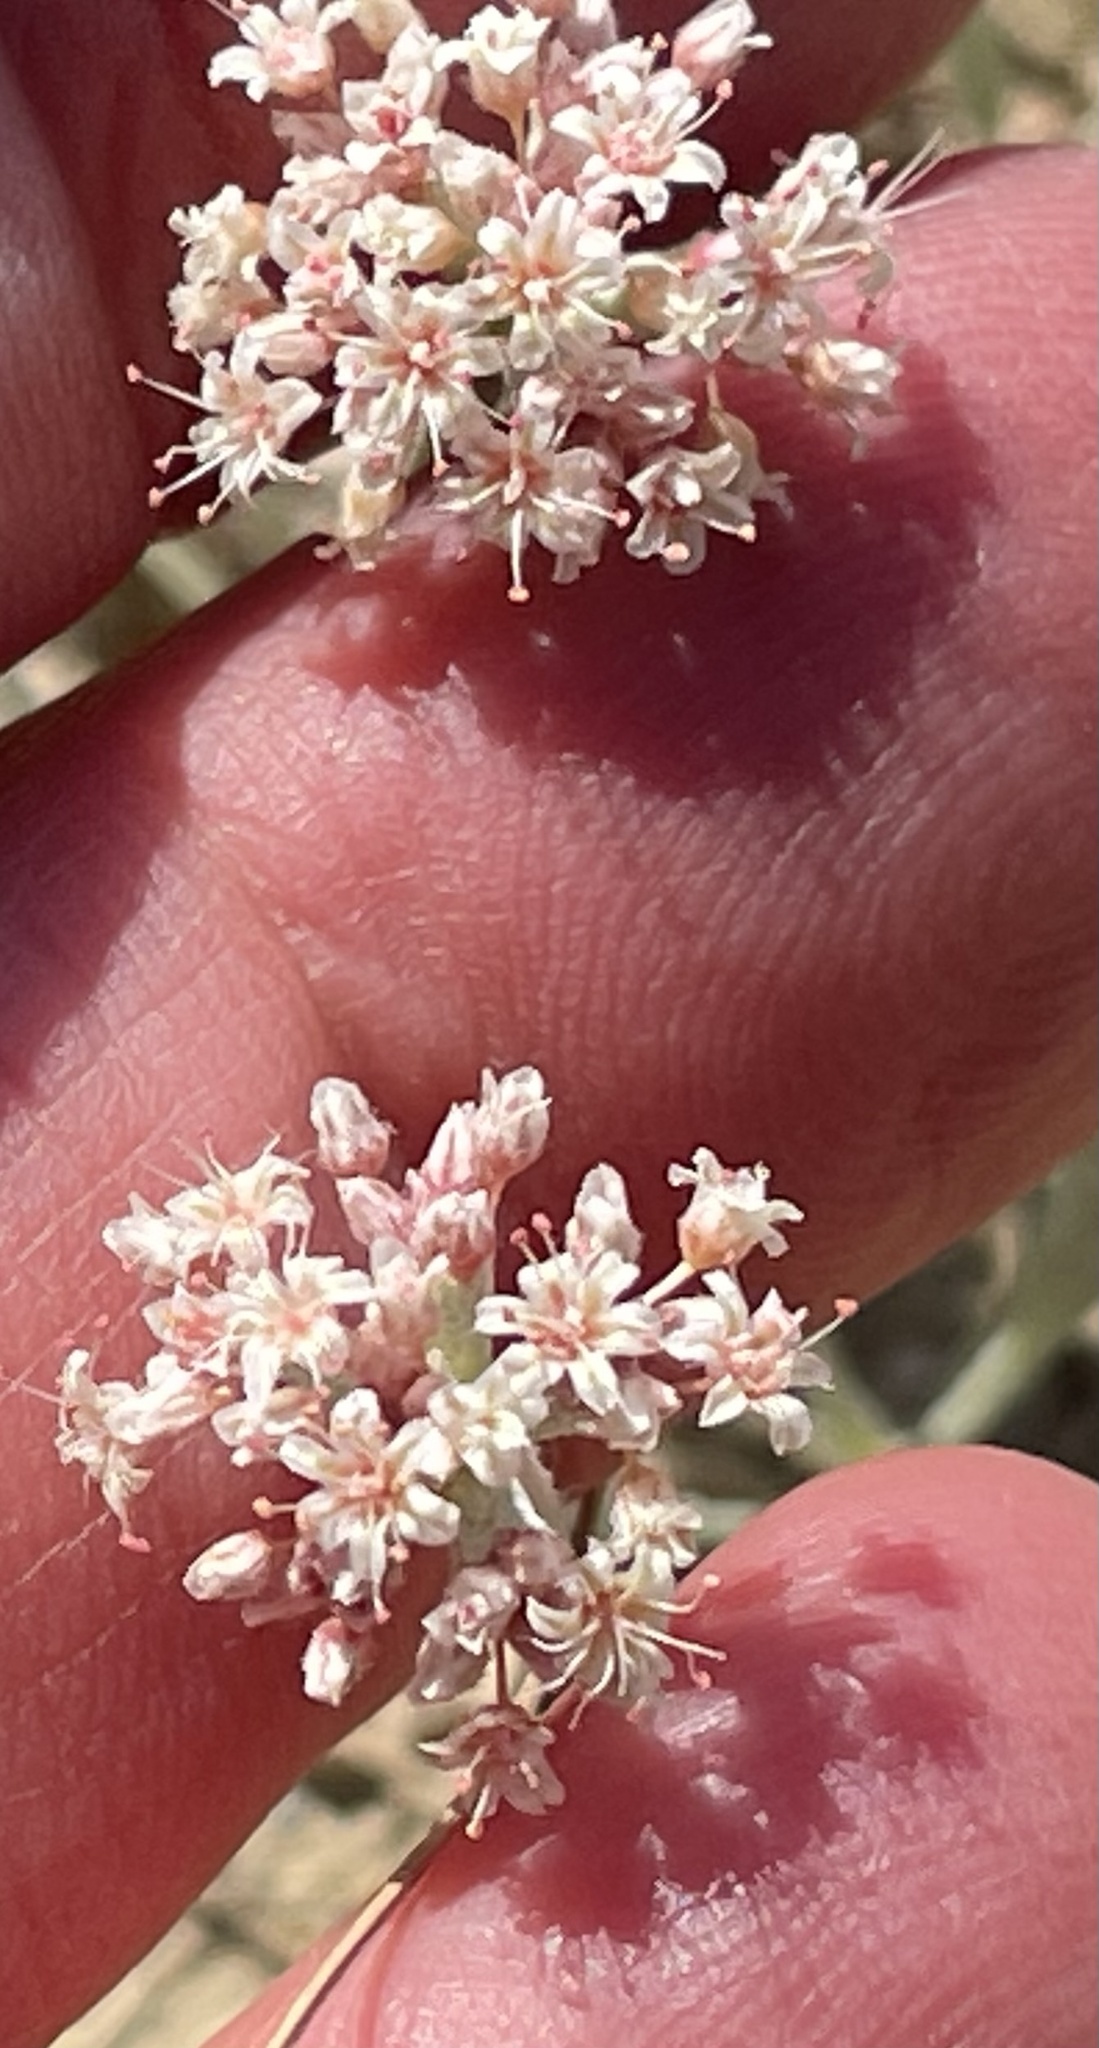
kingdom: Plantae
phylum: Tracheophyta
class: Magnoliopsida
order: Caryophyllales
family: Polygonaceae
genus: Eriogonum
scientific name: Eriogonum pauciflorum
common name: Few-flower wild buckwheat
